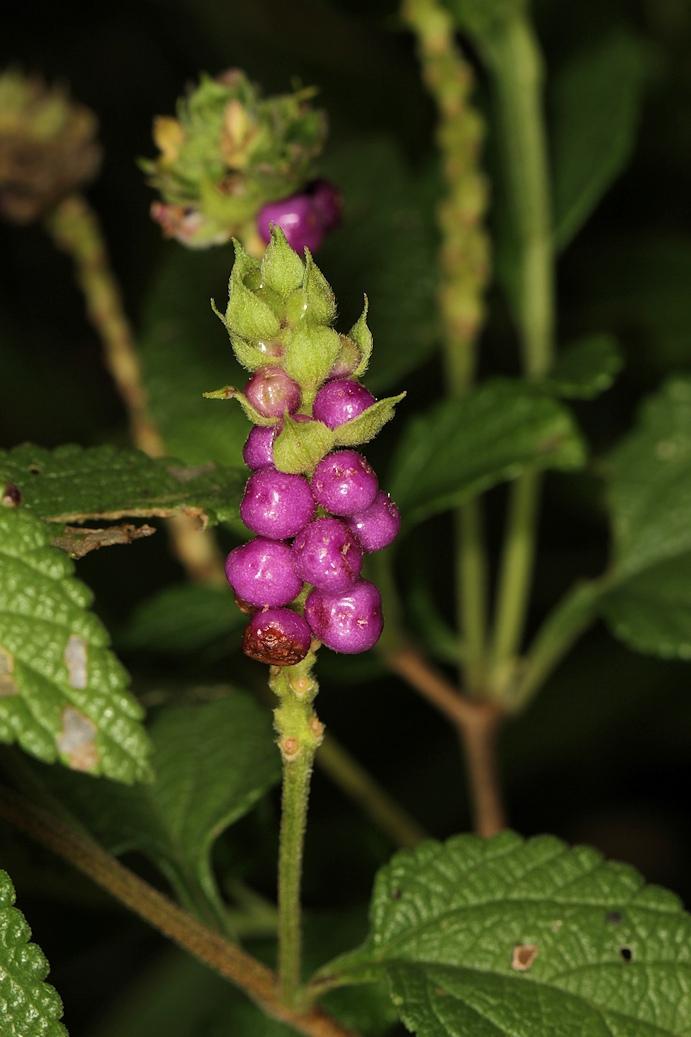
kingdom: Plantae
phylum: Tracheophyta
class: Magnoliopsida
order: Lamiales
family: Verbenaceae
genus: Lantana
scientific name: Lantana rugosa
